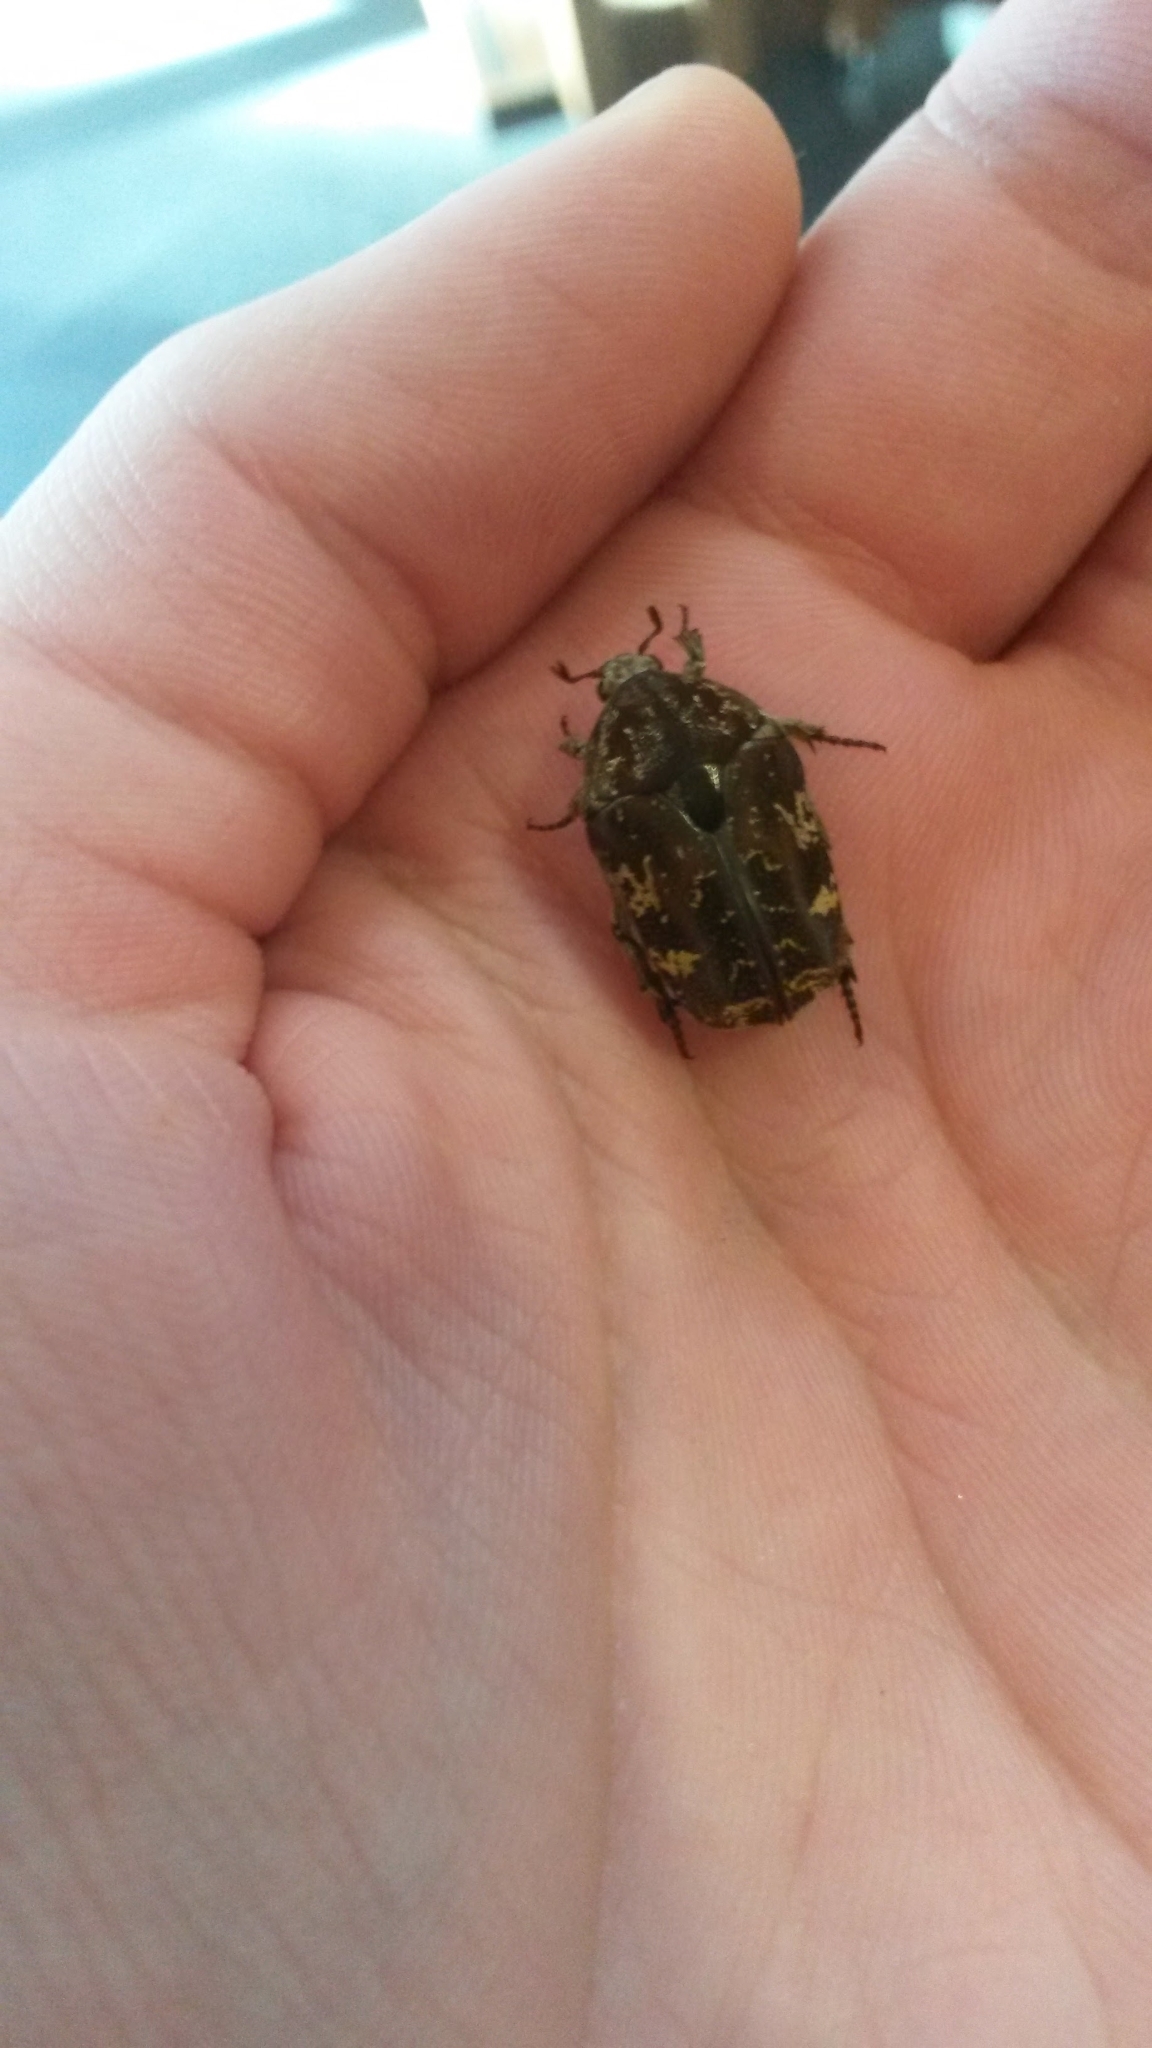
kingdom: Animalia
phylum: Arthropoda
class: Insecta
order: Coleoptera
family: Scarabaeidae
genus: Protaetia
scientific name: Protaetia fusca
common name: Mango flower beetle
